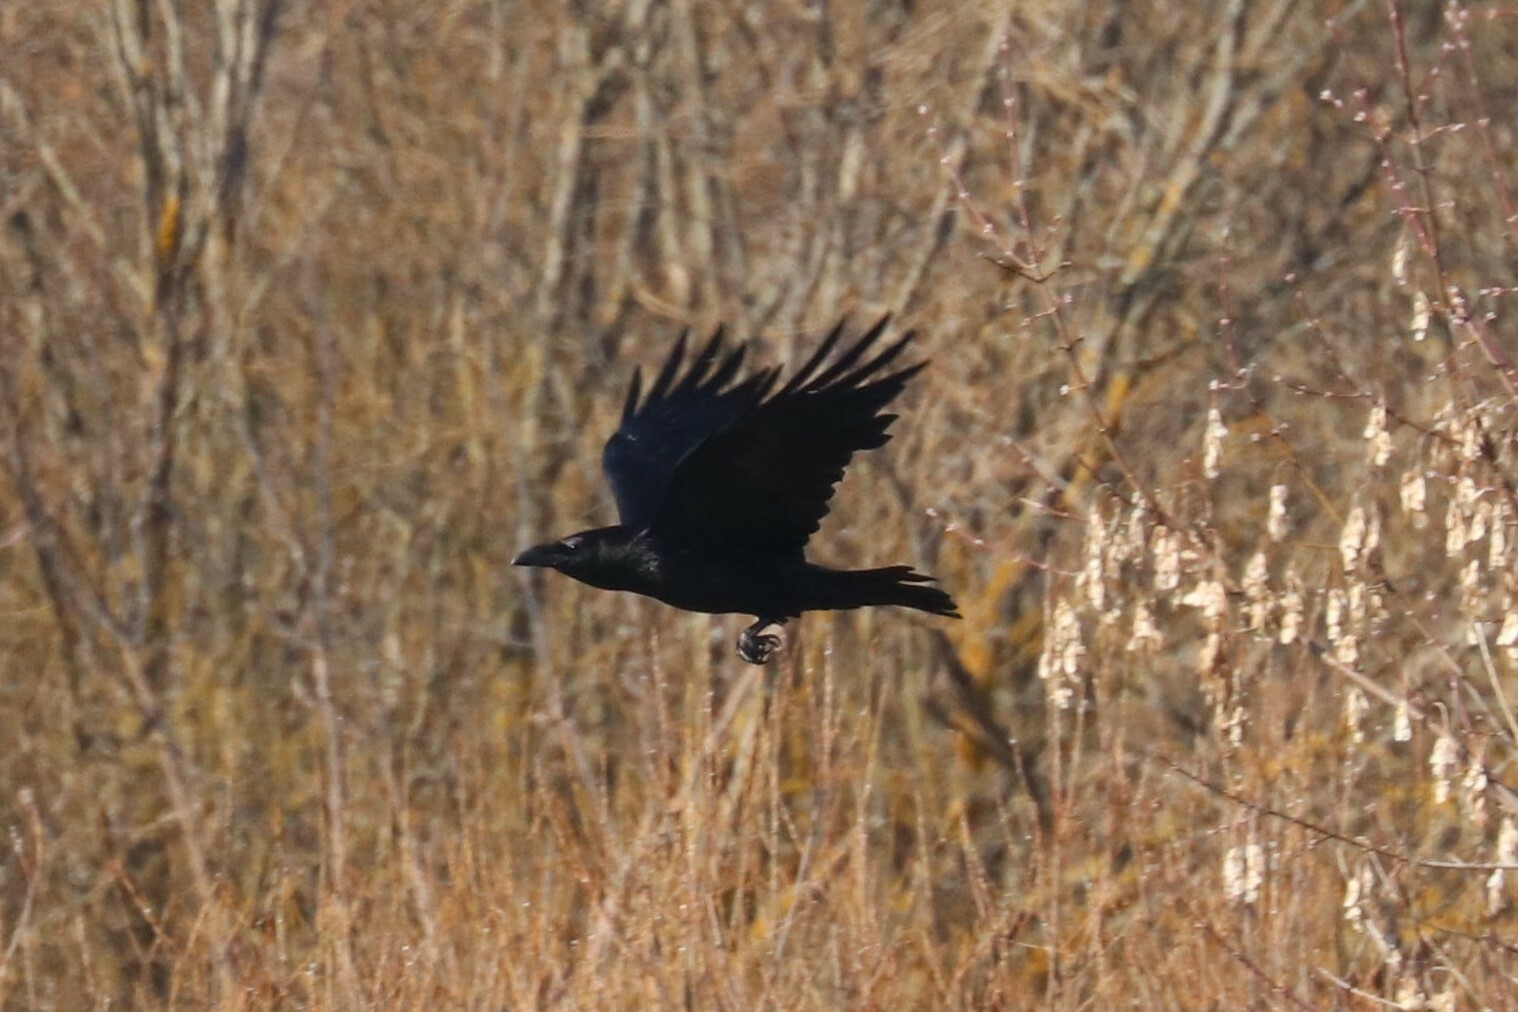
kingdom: Animalia
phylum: Chordata
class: Aves
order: Passeriformes
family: Corvidae
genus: Corvus
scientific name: Corvus corax
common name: Common raven
